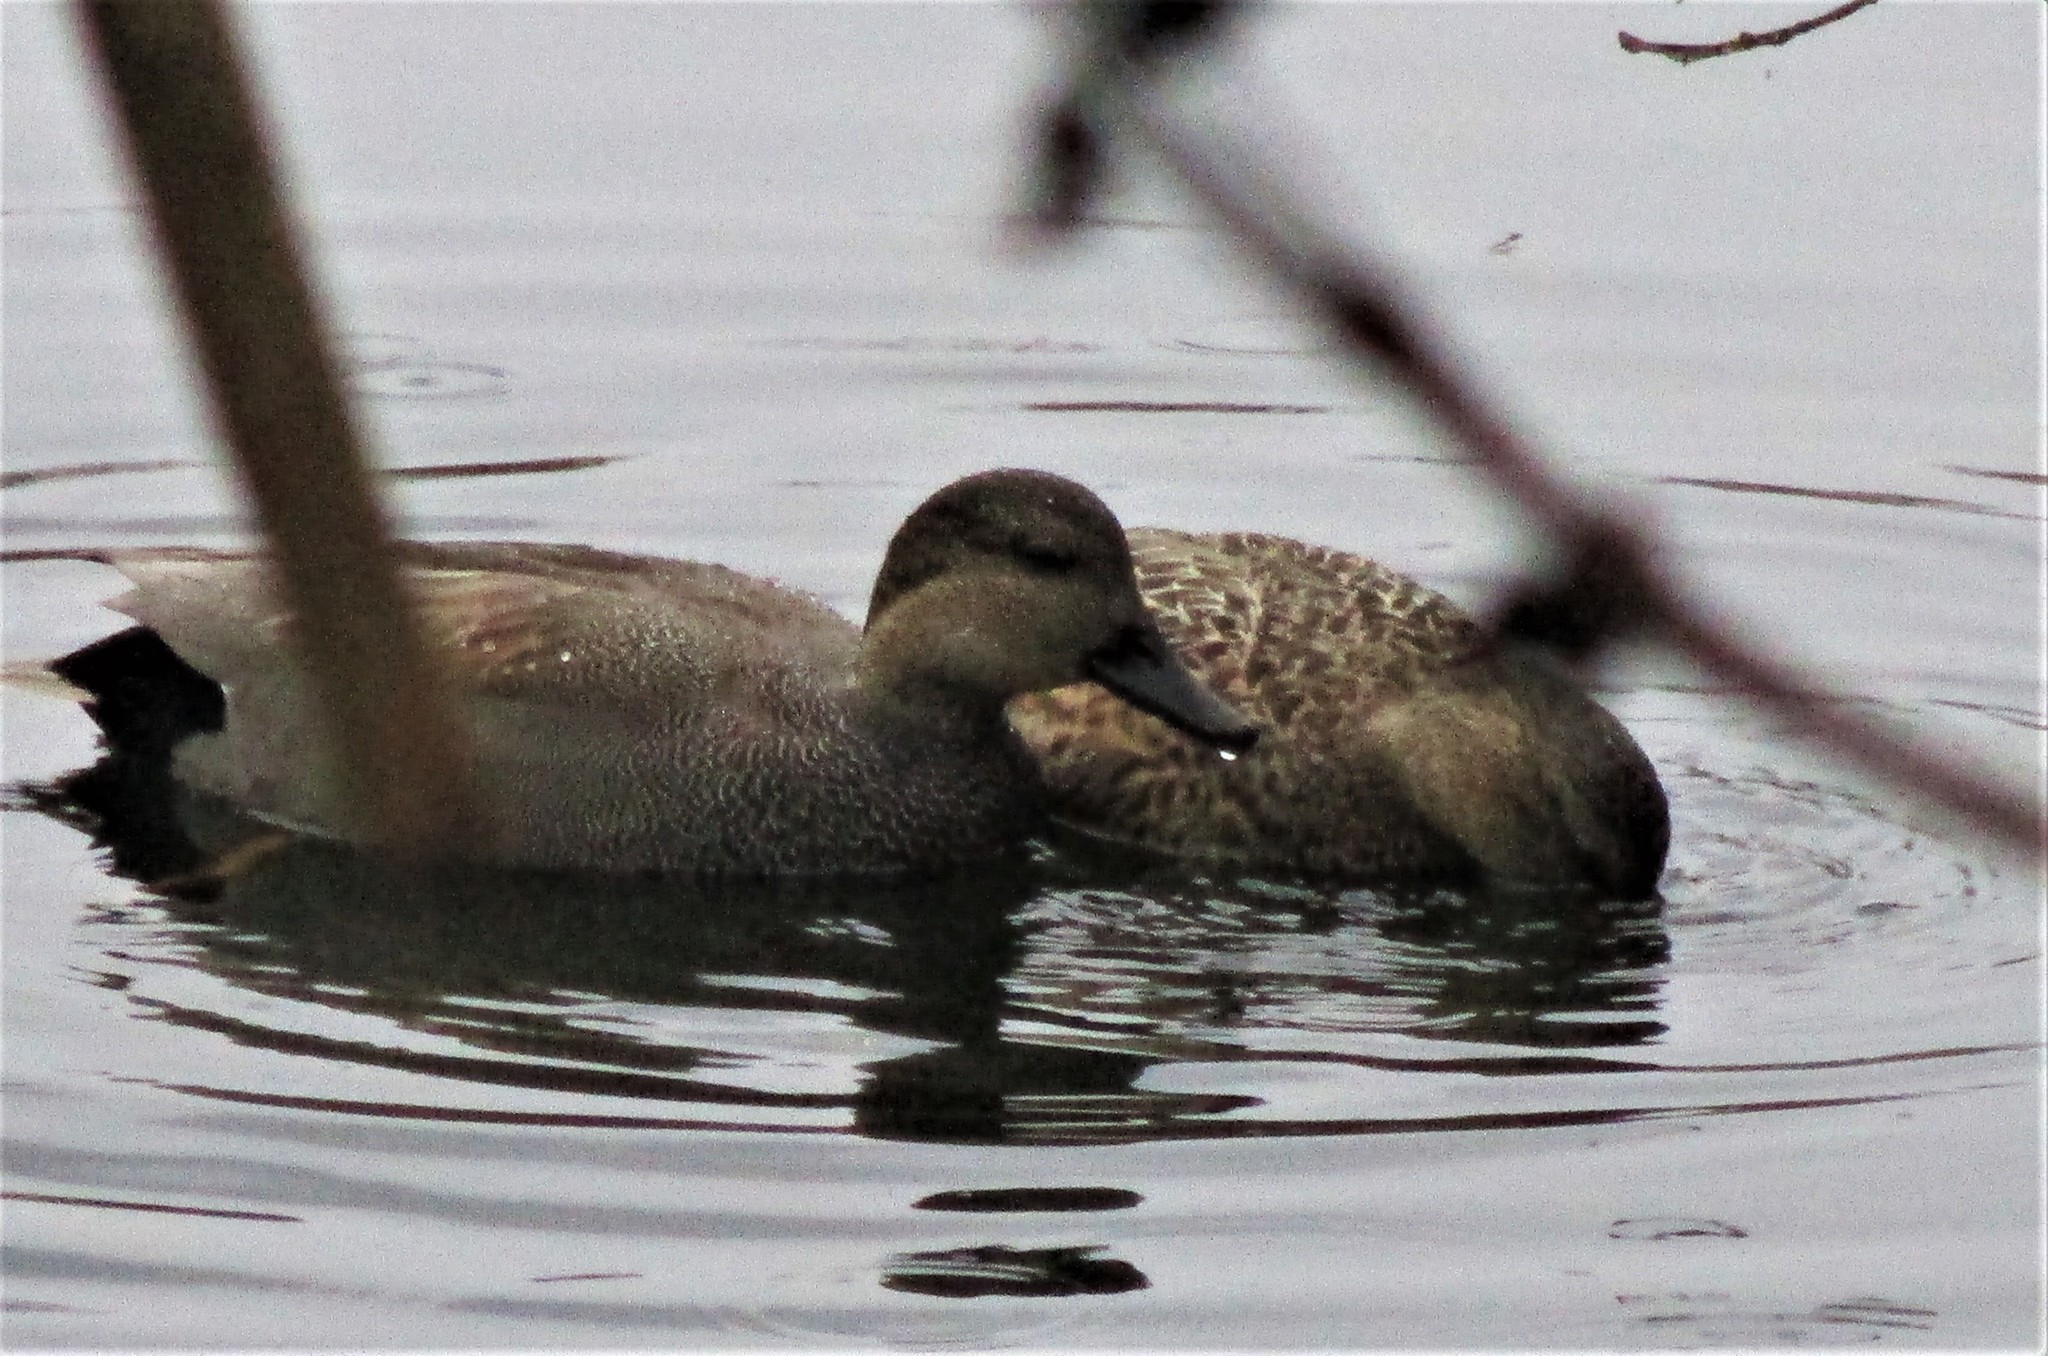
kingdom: Animalia
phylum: Chordata
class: Aves
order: Anseriformes
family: Anatidae
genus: Mareca
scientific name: Mareca strepera
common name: Gadwall
